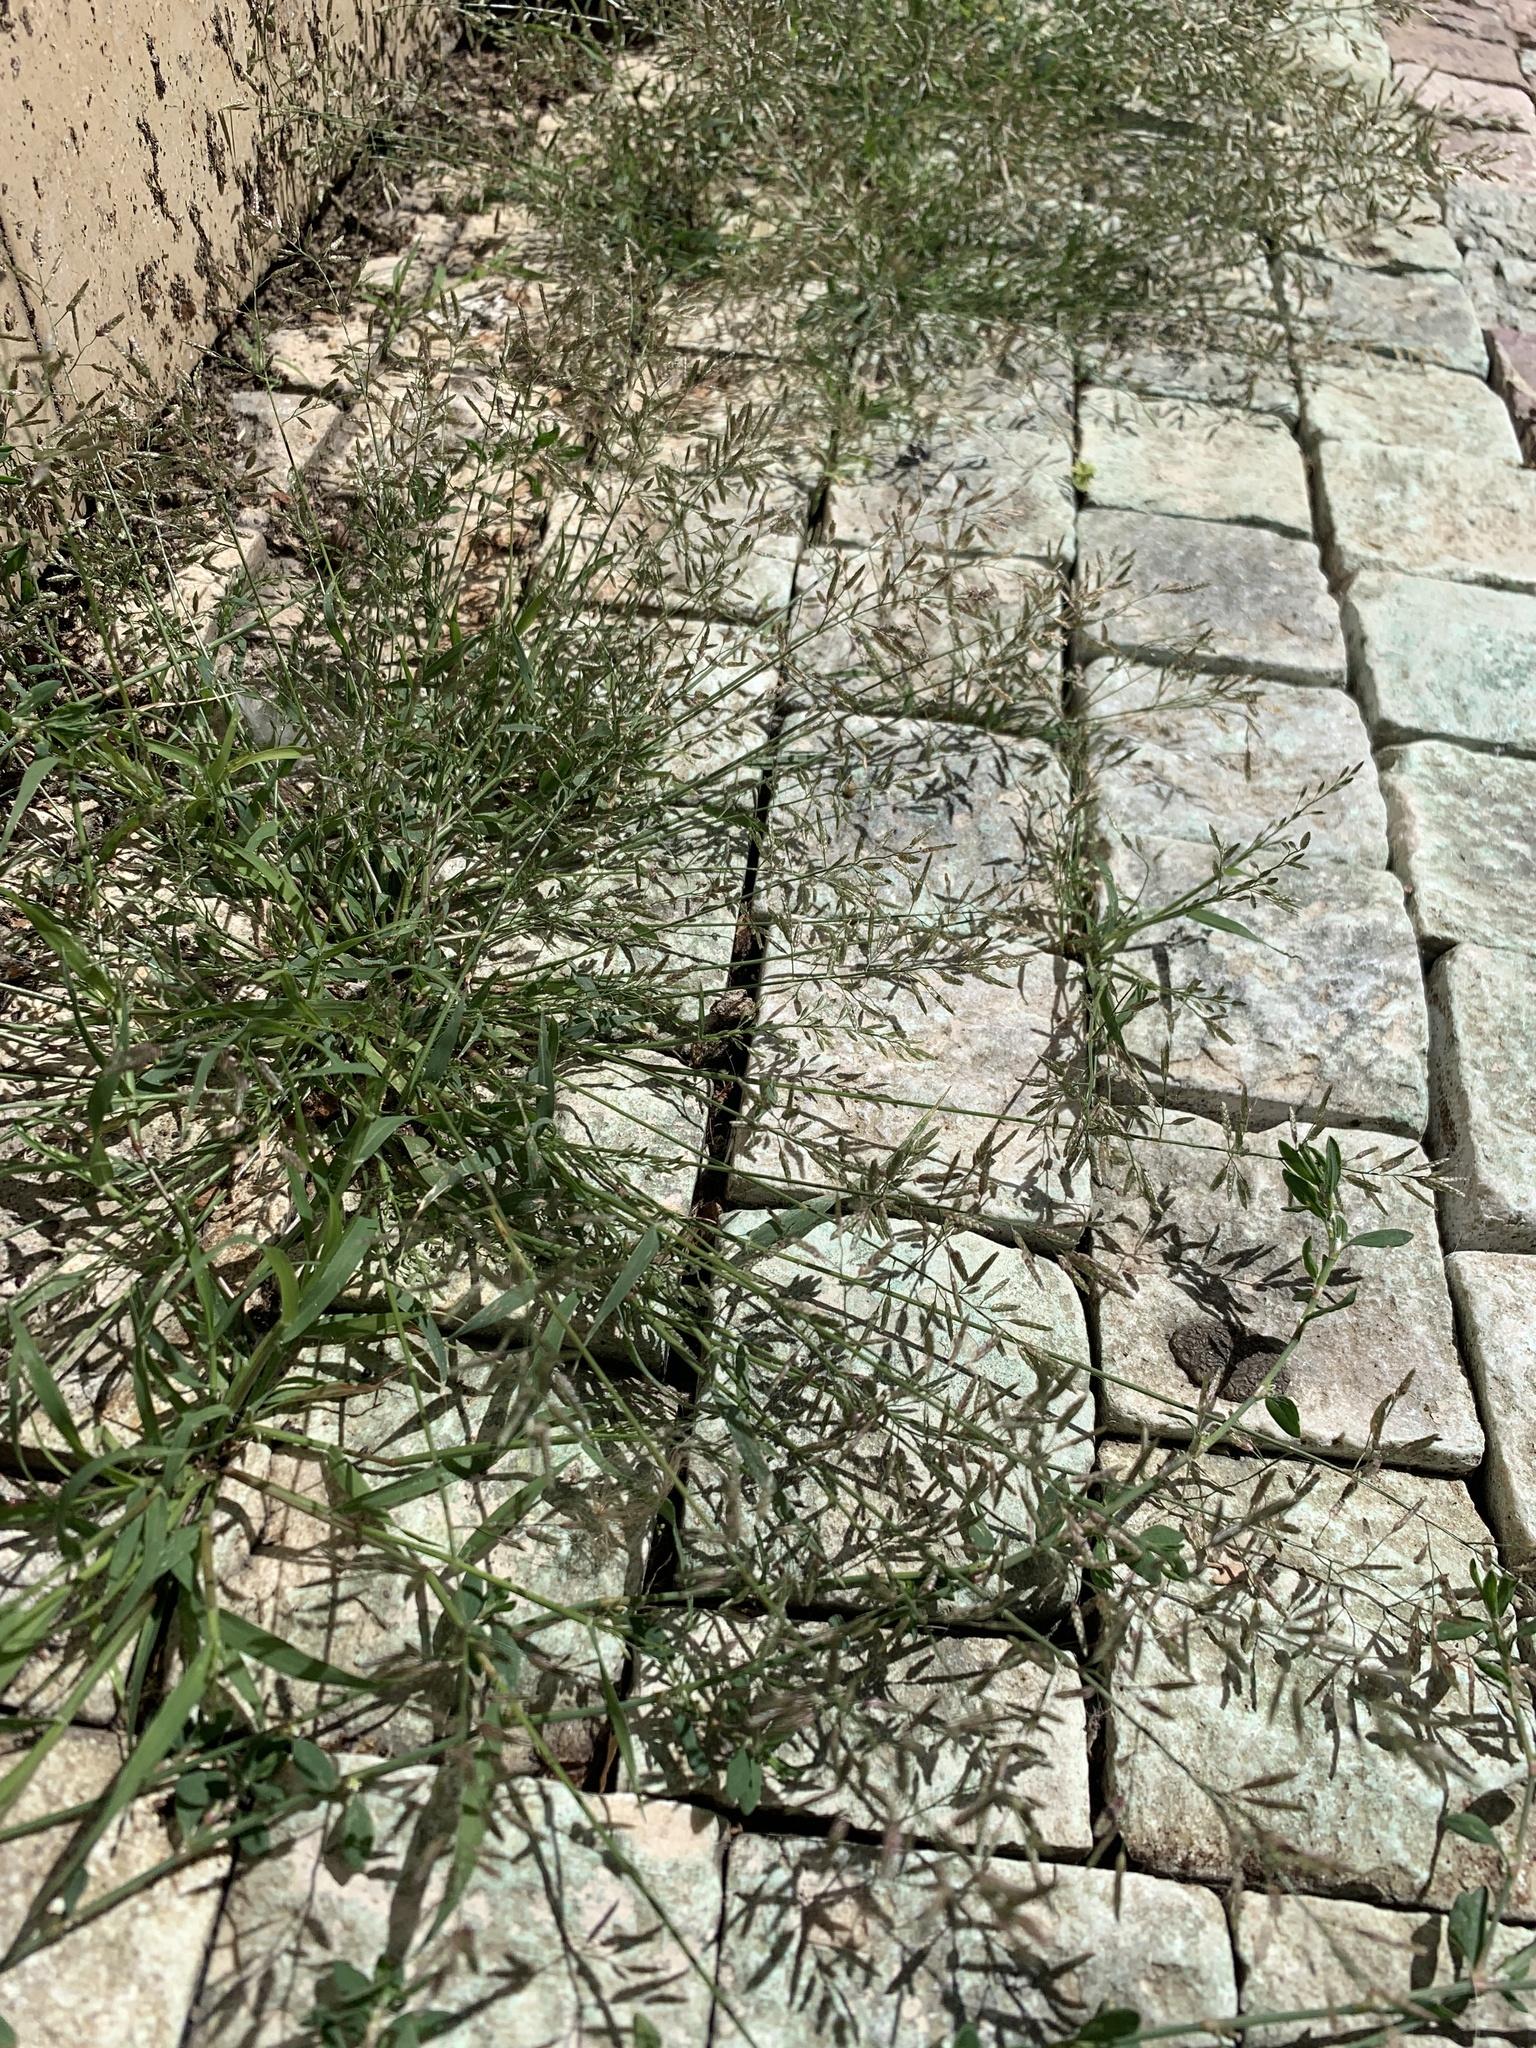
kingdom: Plantae
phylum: Tracheophyta
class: Liliopsida
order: Poales
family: Poaceae
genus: Eragrostis
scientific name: Eragrostis minor
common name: Small love-grass
